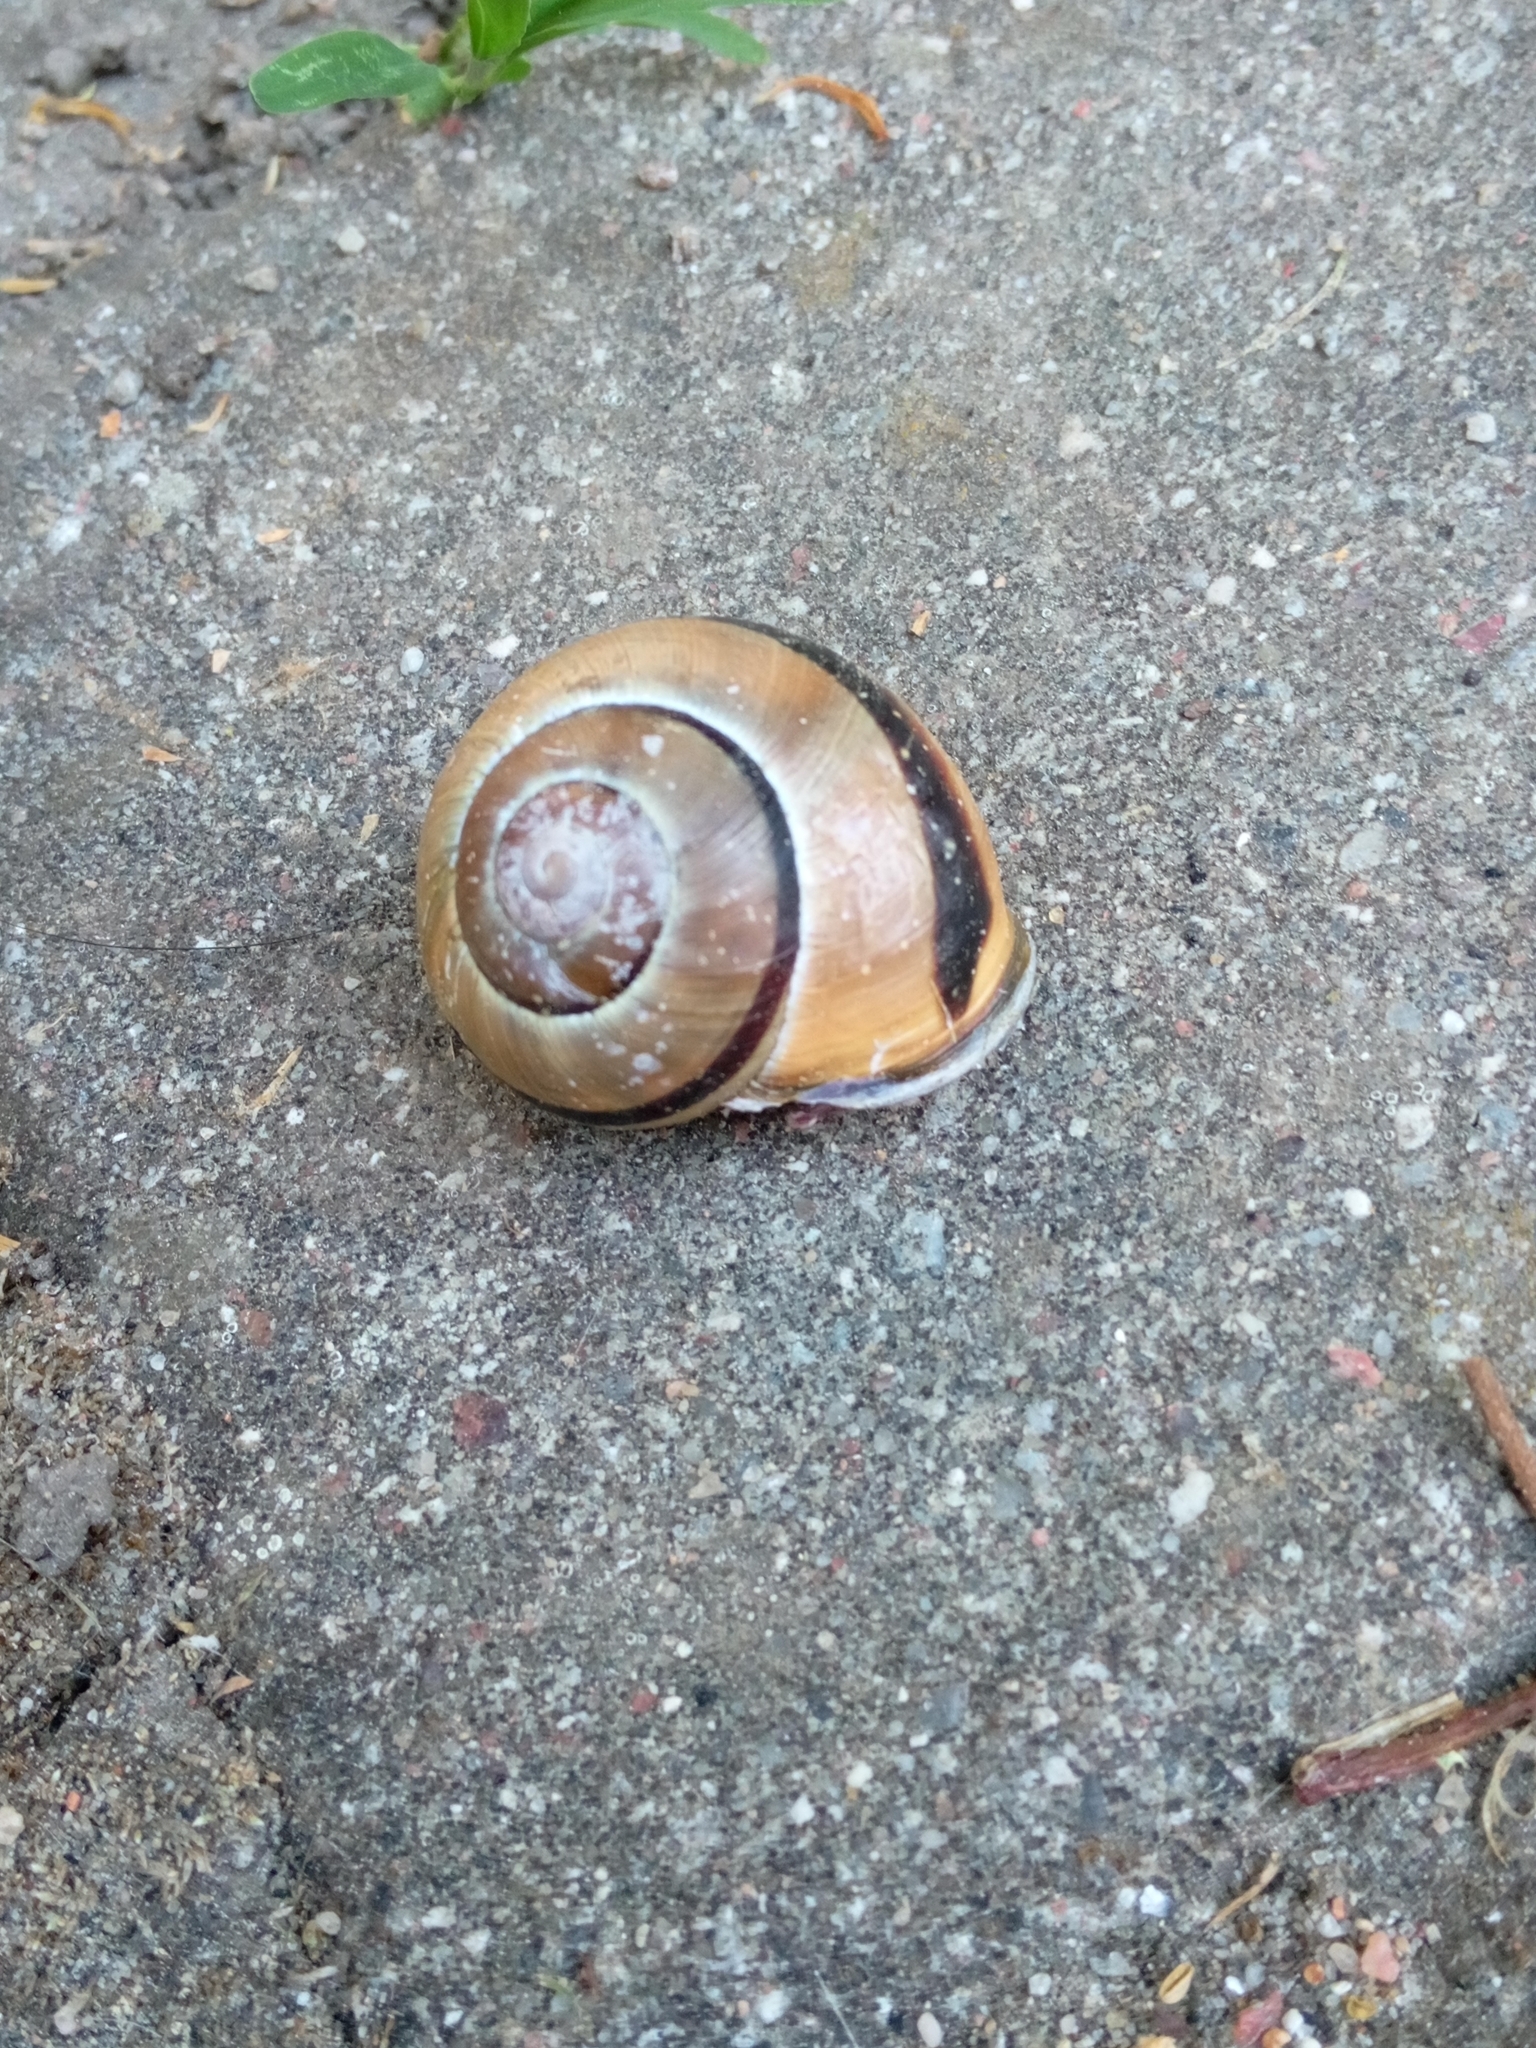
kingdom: Animalia
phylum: Mollusca
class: Gastropoda
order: Stylommatophora
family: Helicidae
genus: Cepaea
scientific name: Cepaea nemoralis
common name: Grovesnail
